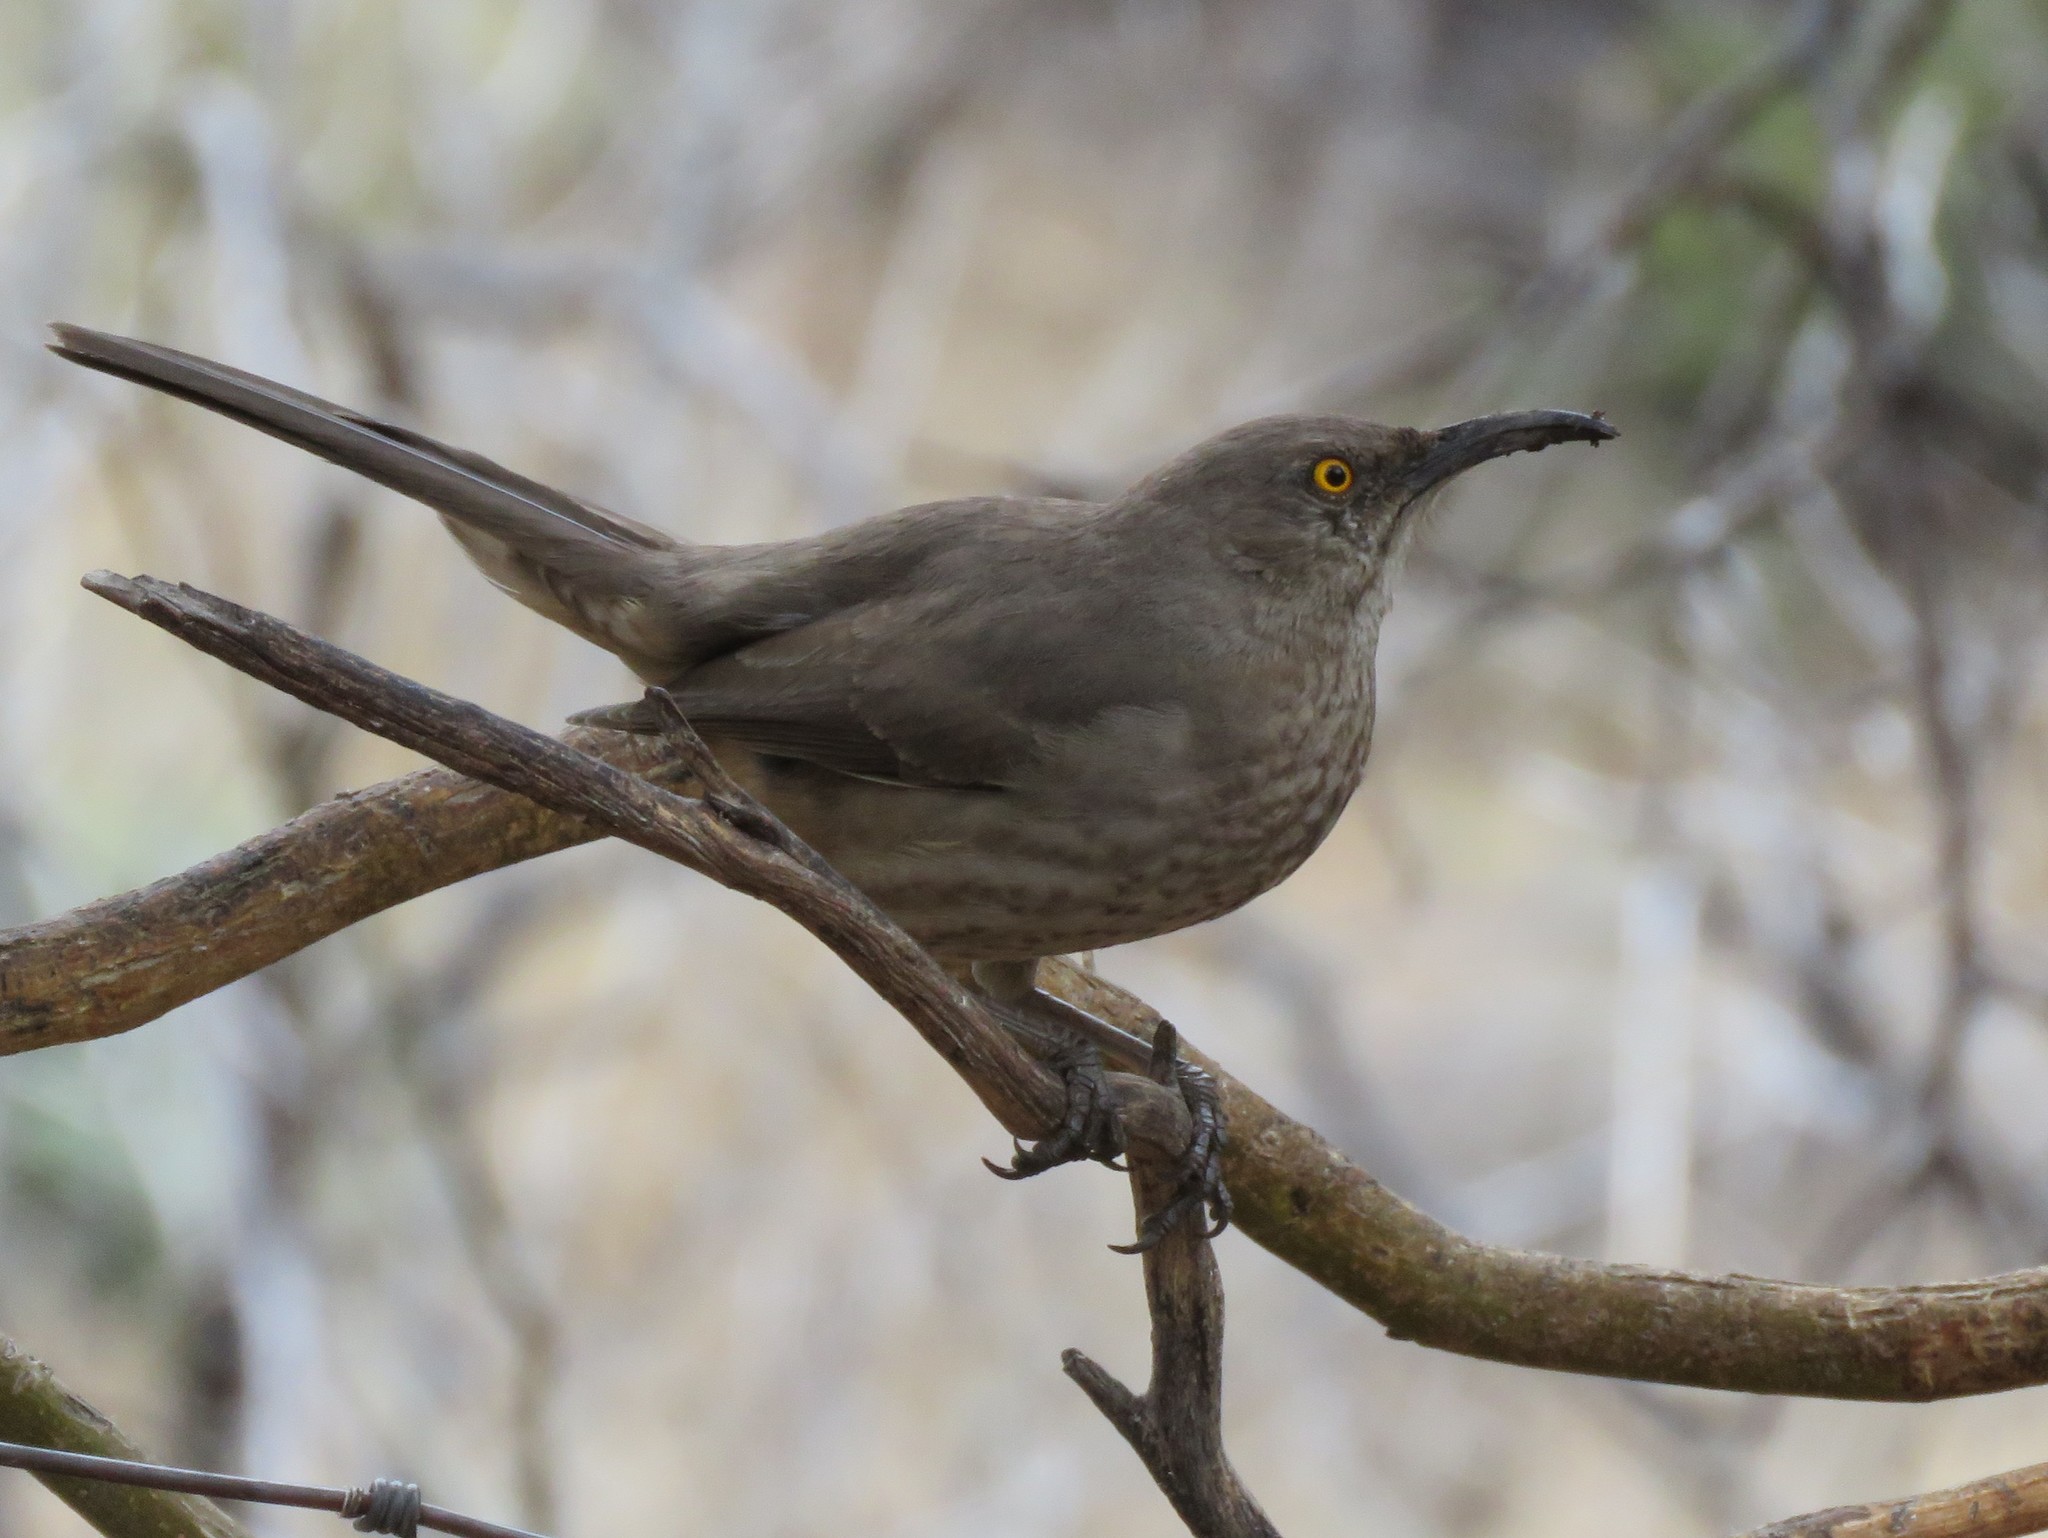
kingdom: Animalia
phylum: Chordata
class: Aves
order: Passeriformes
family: Mimidae
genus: Toxostoma
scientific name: Toxostoma curvirostre
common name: Curve-billed thrasher
